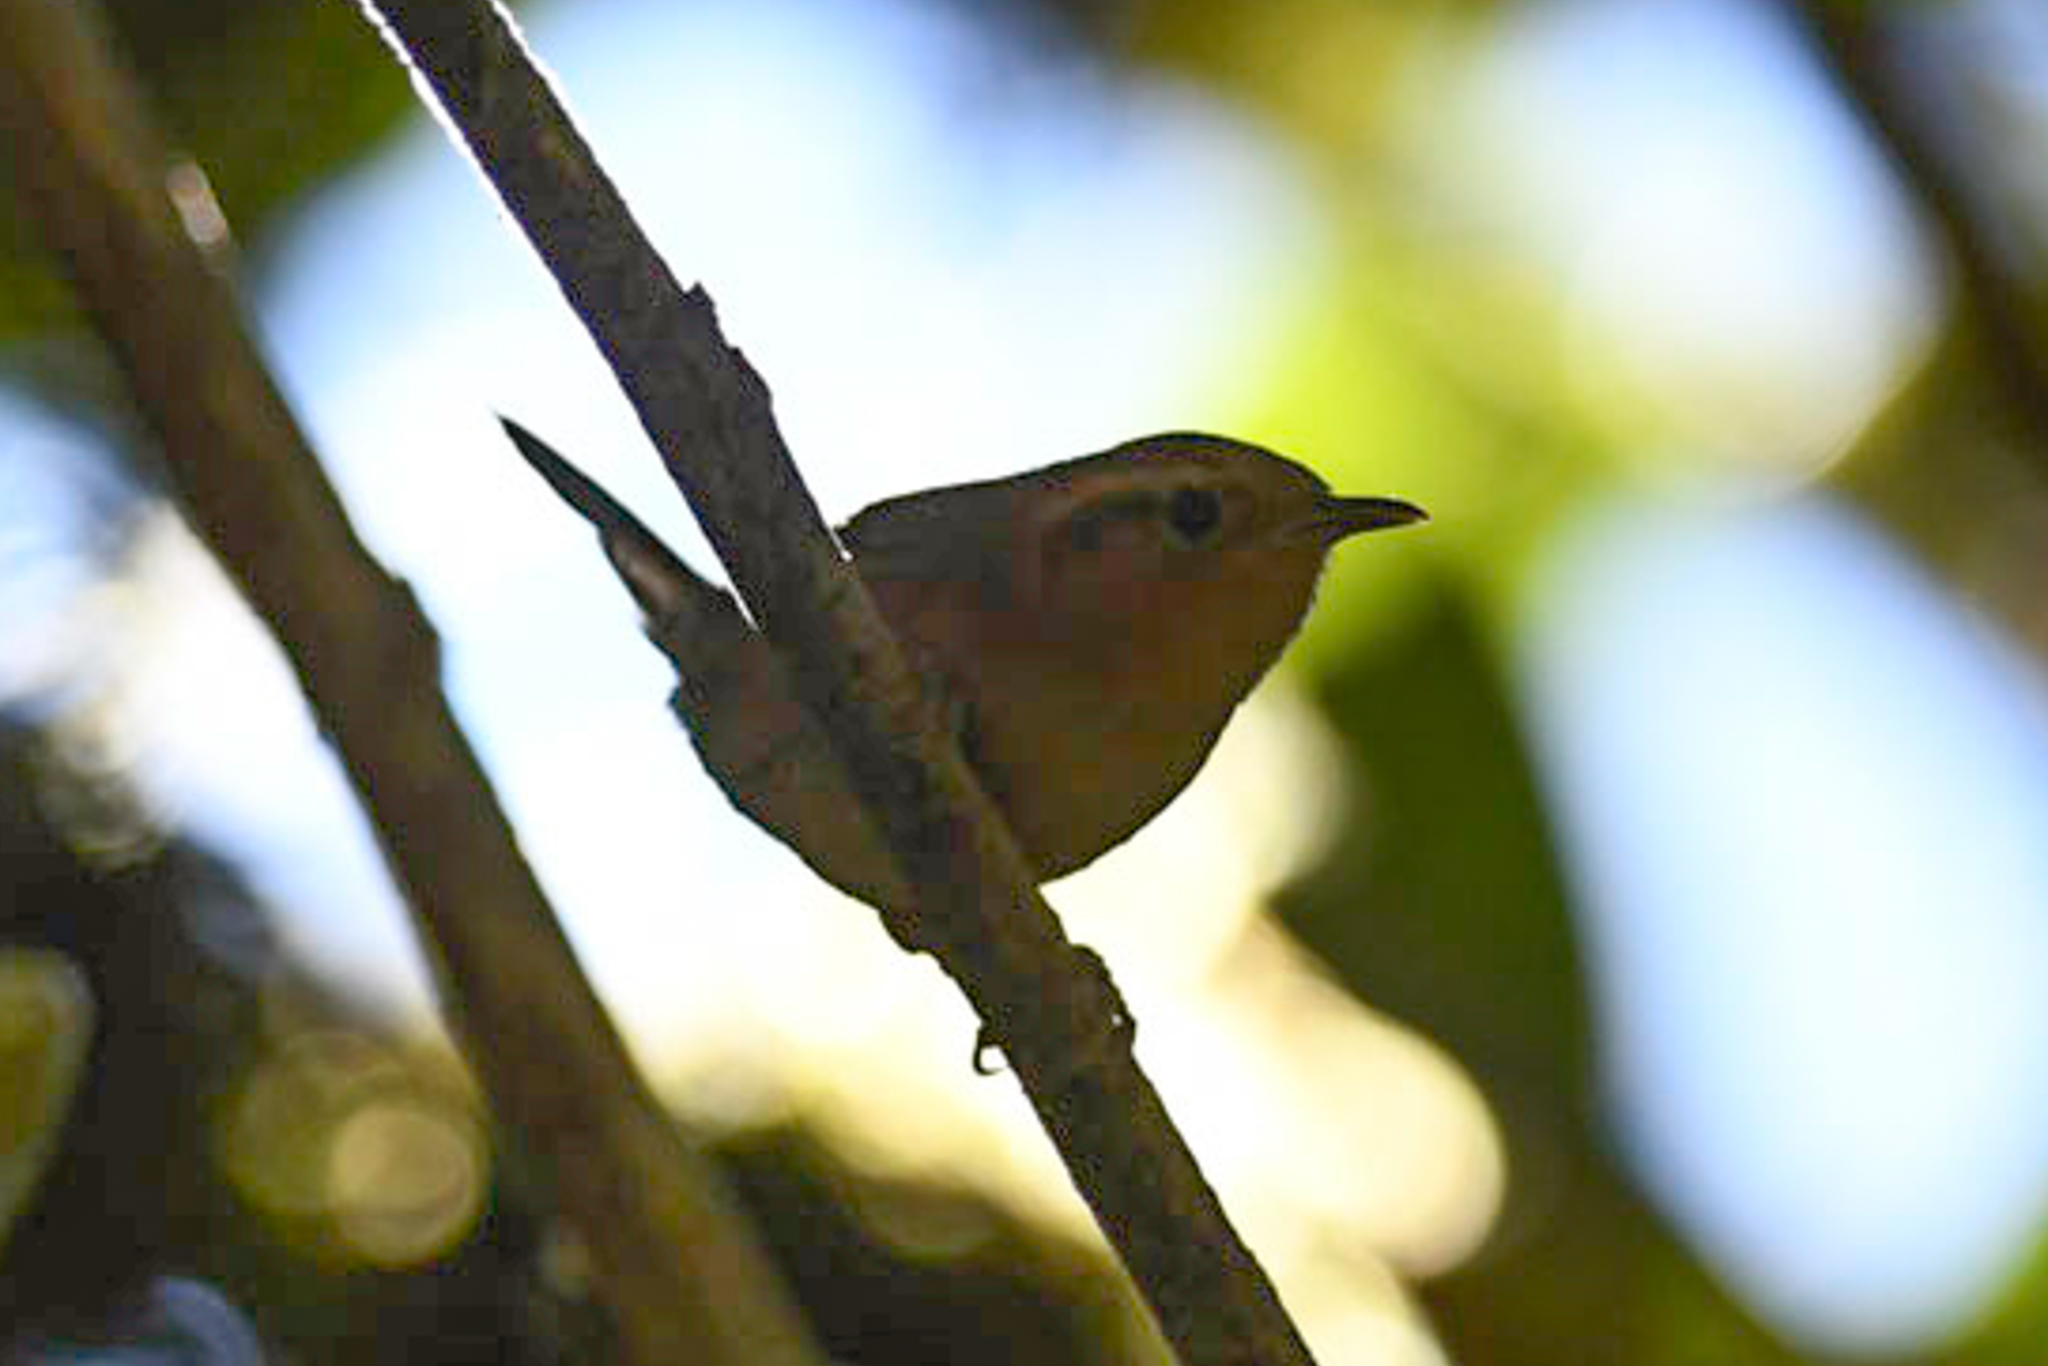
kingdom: Animalia
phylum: Chordata
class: Aves
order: Passeriformes
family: Troglodytidae
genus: Troglodytes
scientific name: Troglodytes ochraceus
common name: Ochraceous wren
